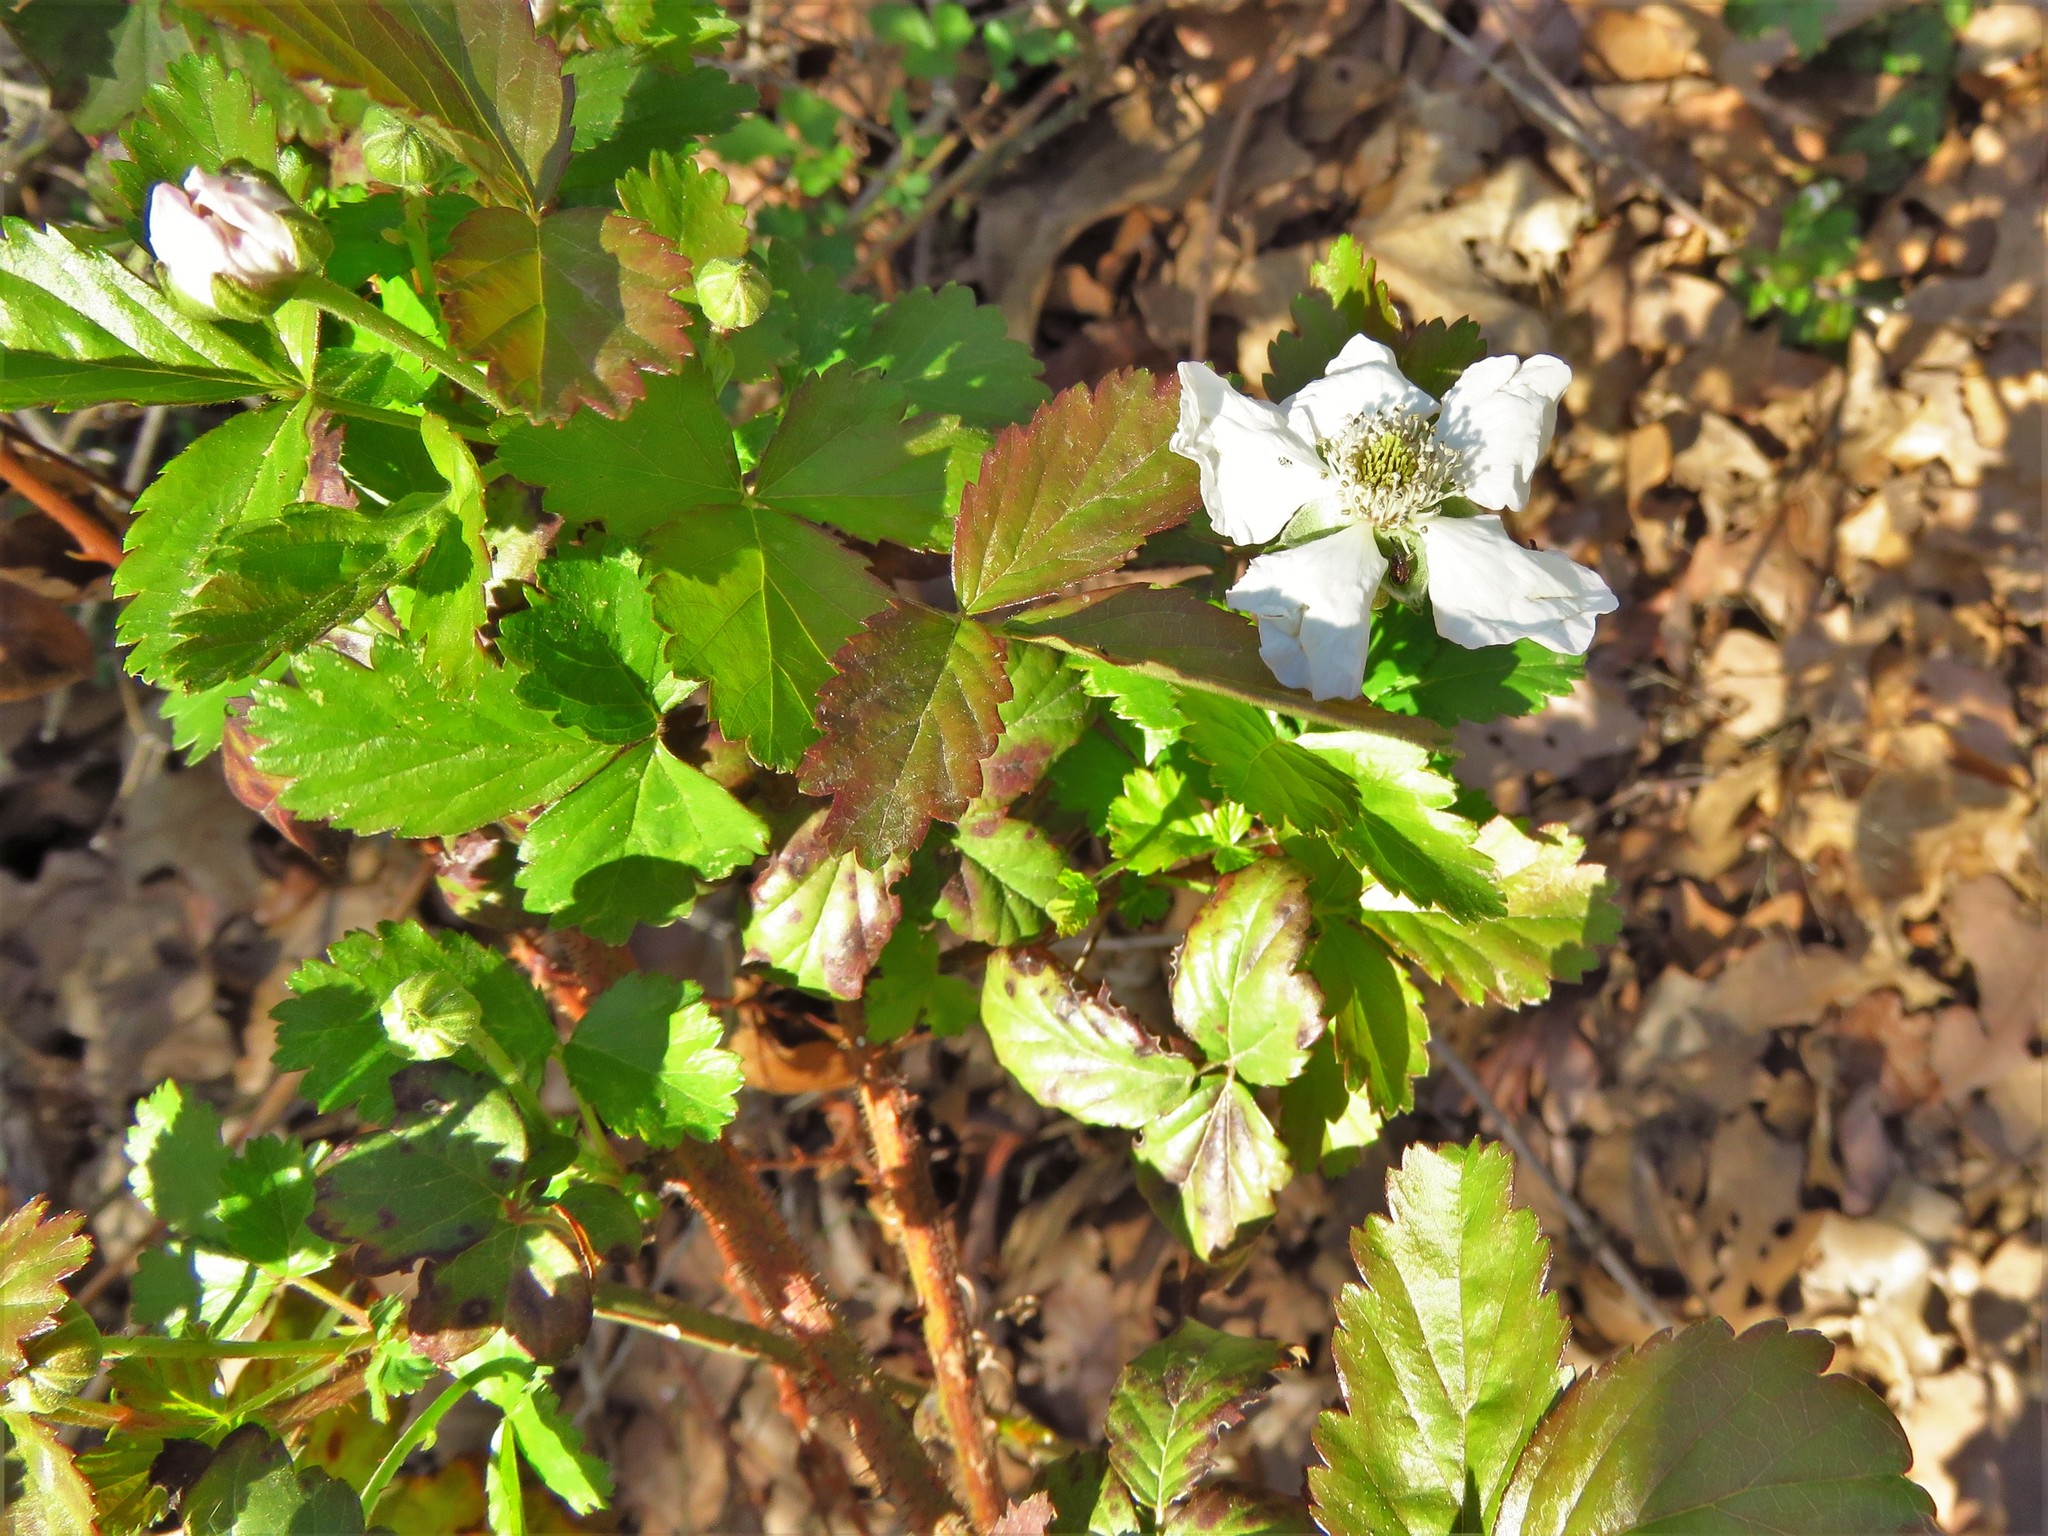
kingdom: Plantae
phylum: Tracheophyta
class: Magnoliopsida
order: Rosales
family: Rosaceae
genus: Rubus
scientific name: Rubus trivialis
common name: Southern dewberry
